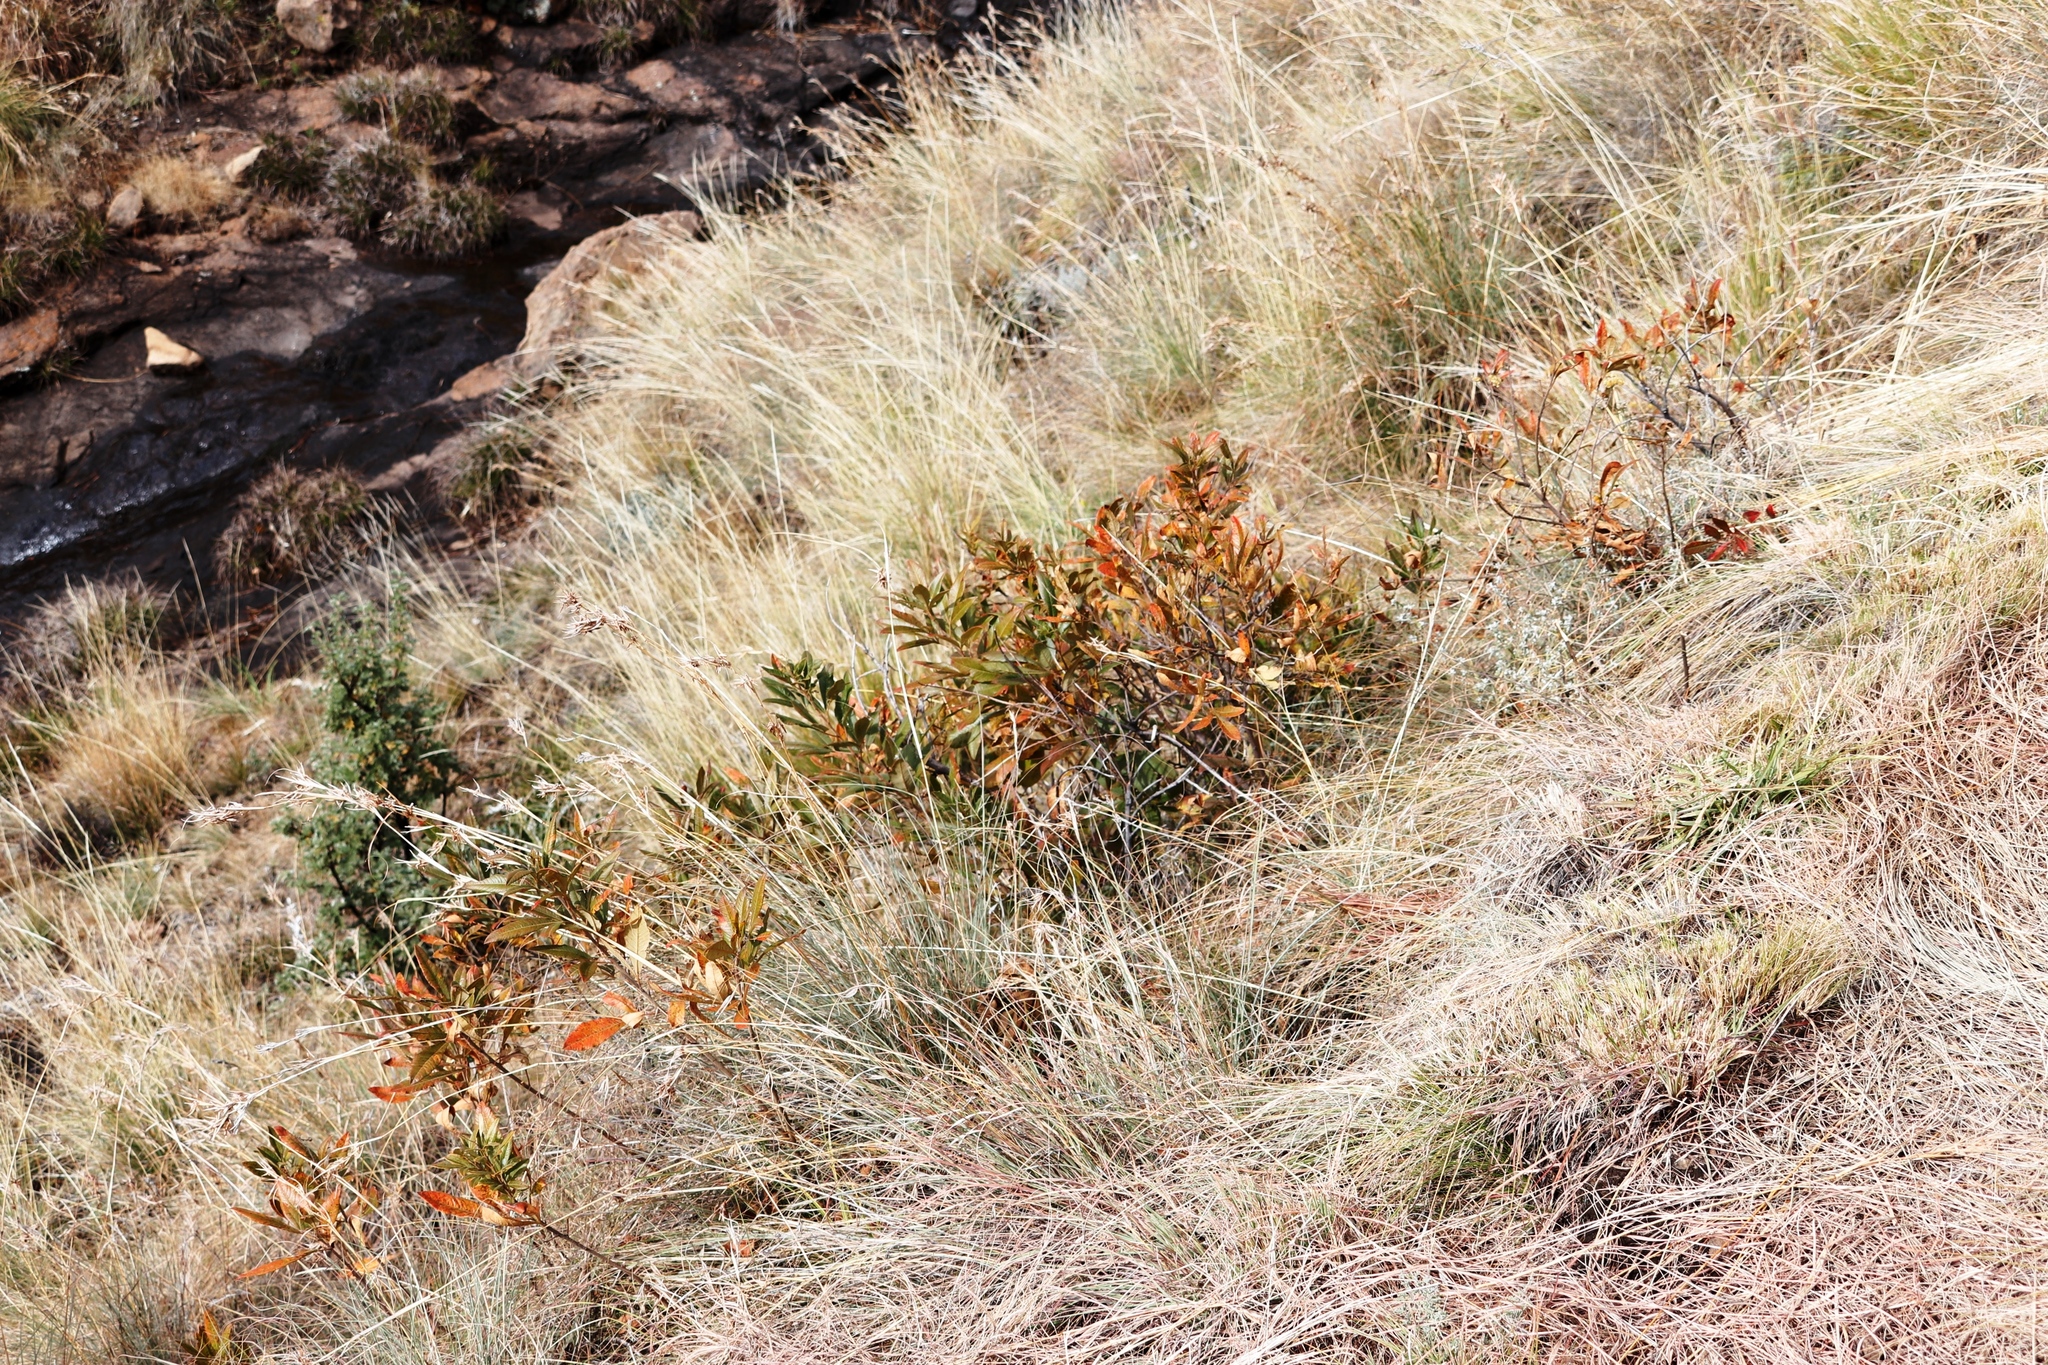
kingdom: Plantae
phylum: Tracheophyta
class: Magnoliopsida
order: Sapindales
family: Anacardiaceae
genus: Searsia
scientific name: Searsia discolor
